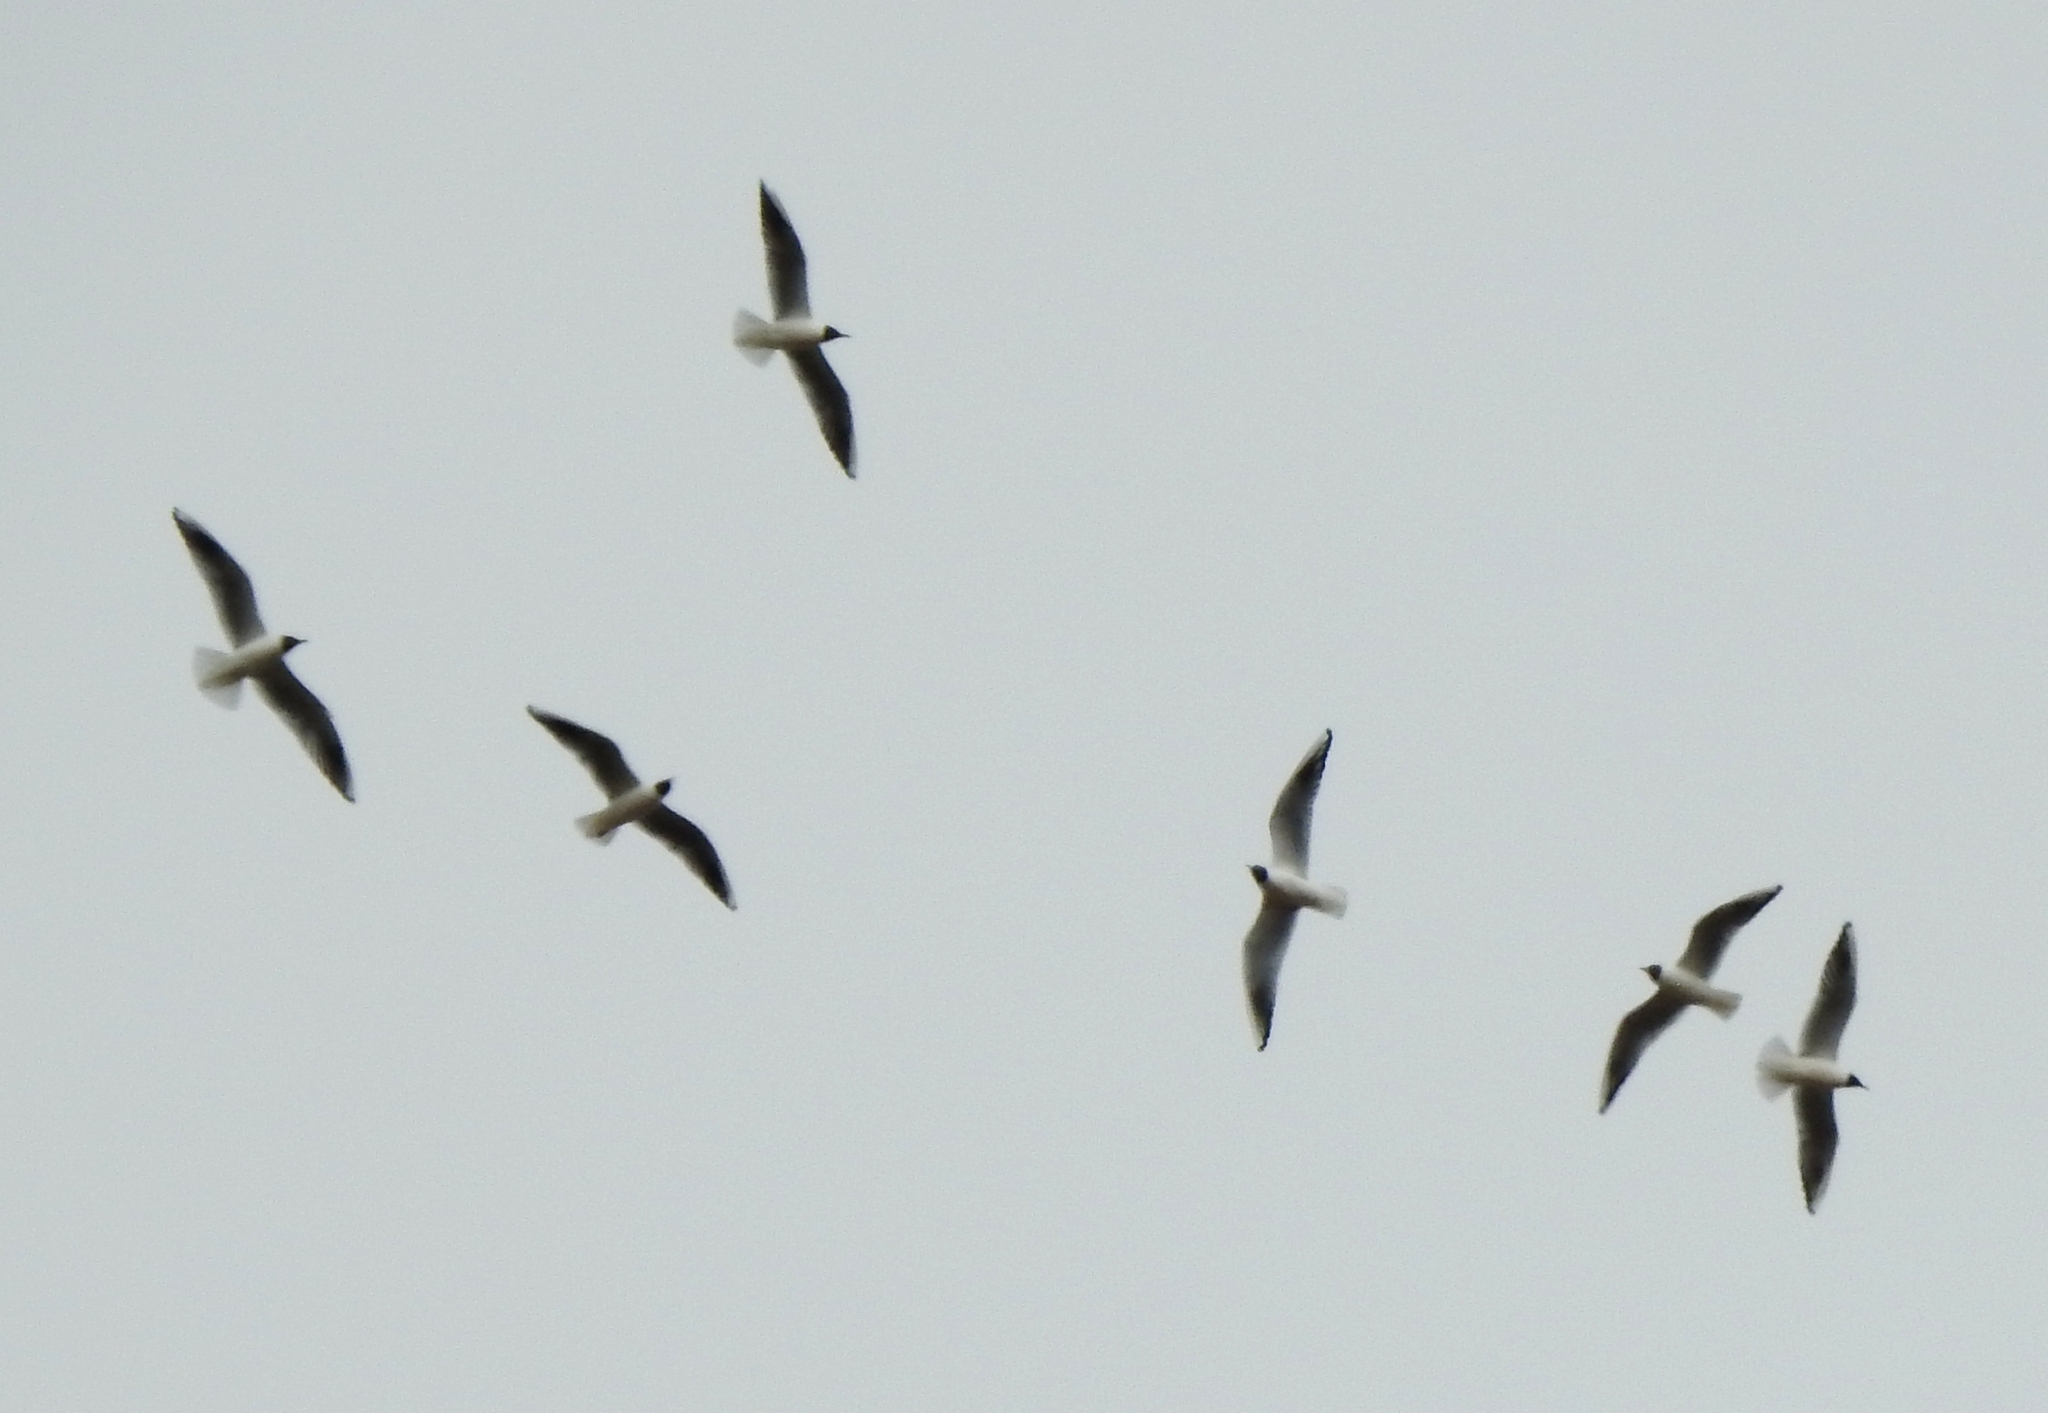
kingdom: Animalia
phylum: Chordata
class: Aves
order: Charadriiformes
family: Laridae
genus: Chroicocephalus
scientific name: Chroicocephalus ridibundus
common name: Black-headed gull
